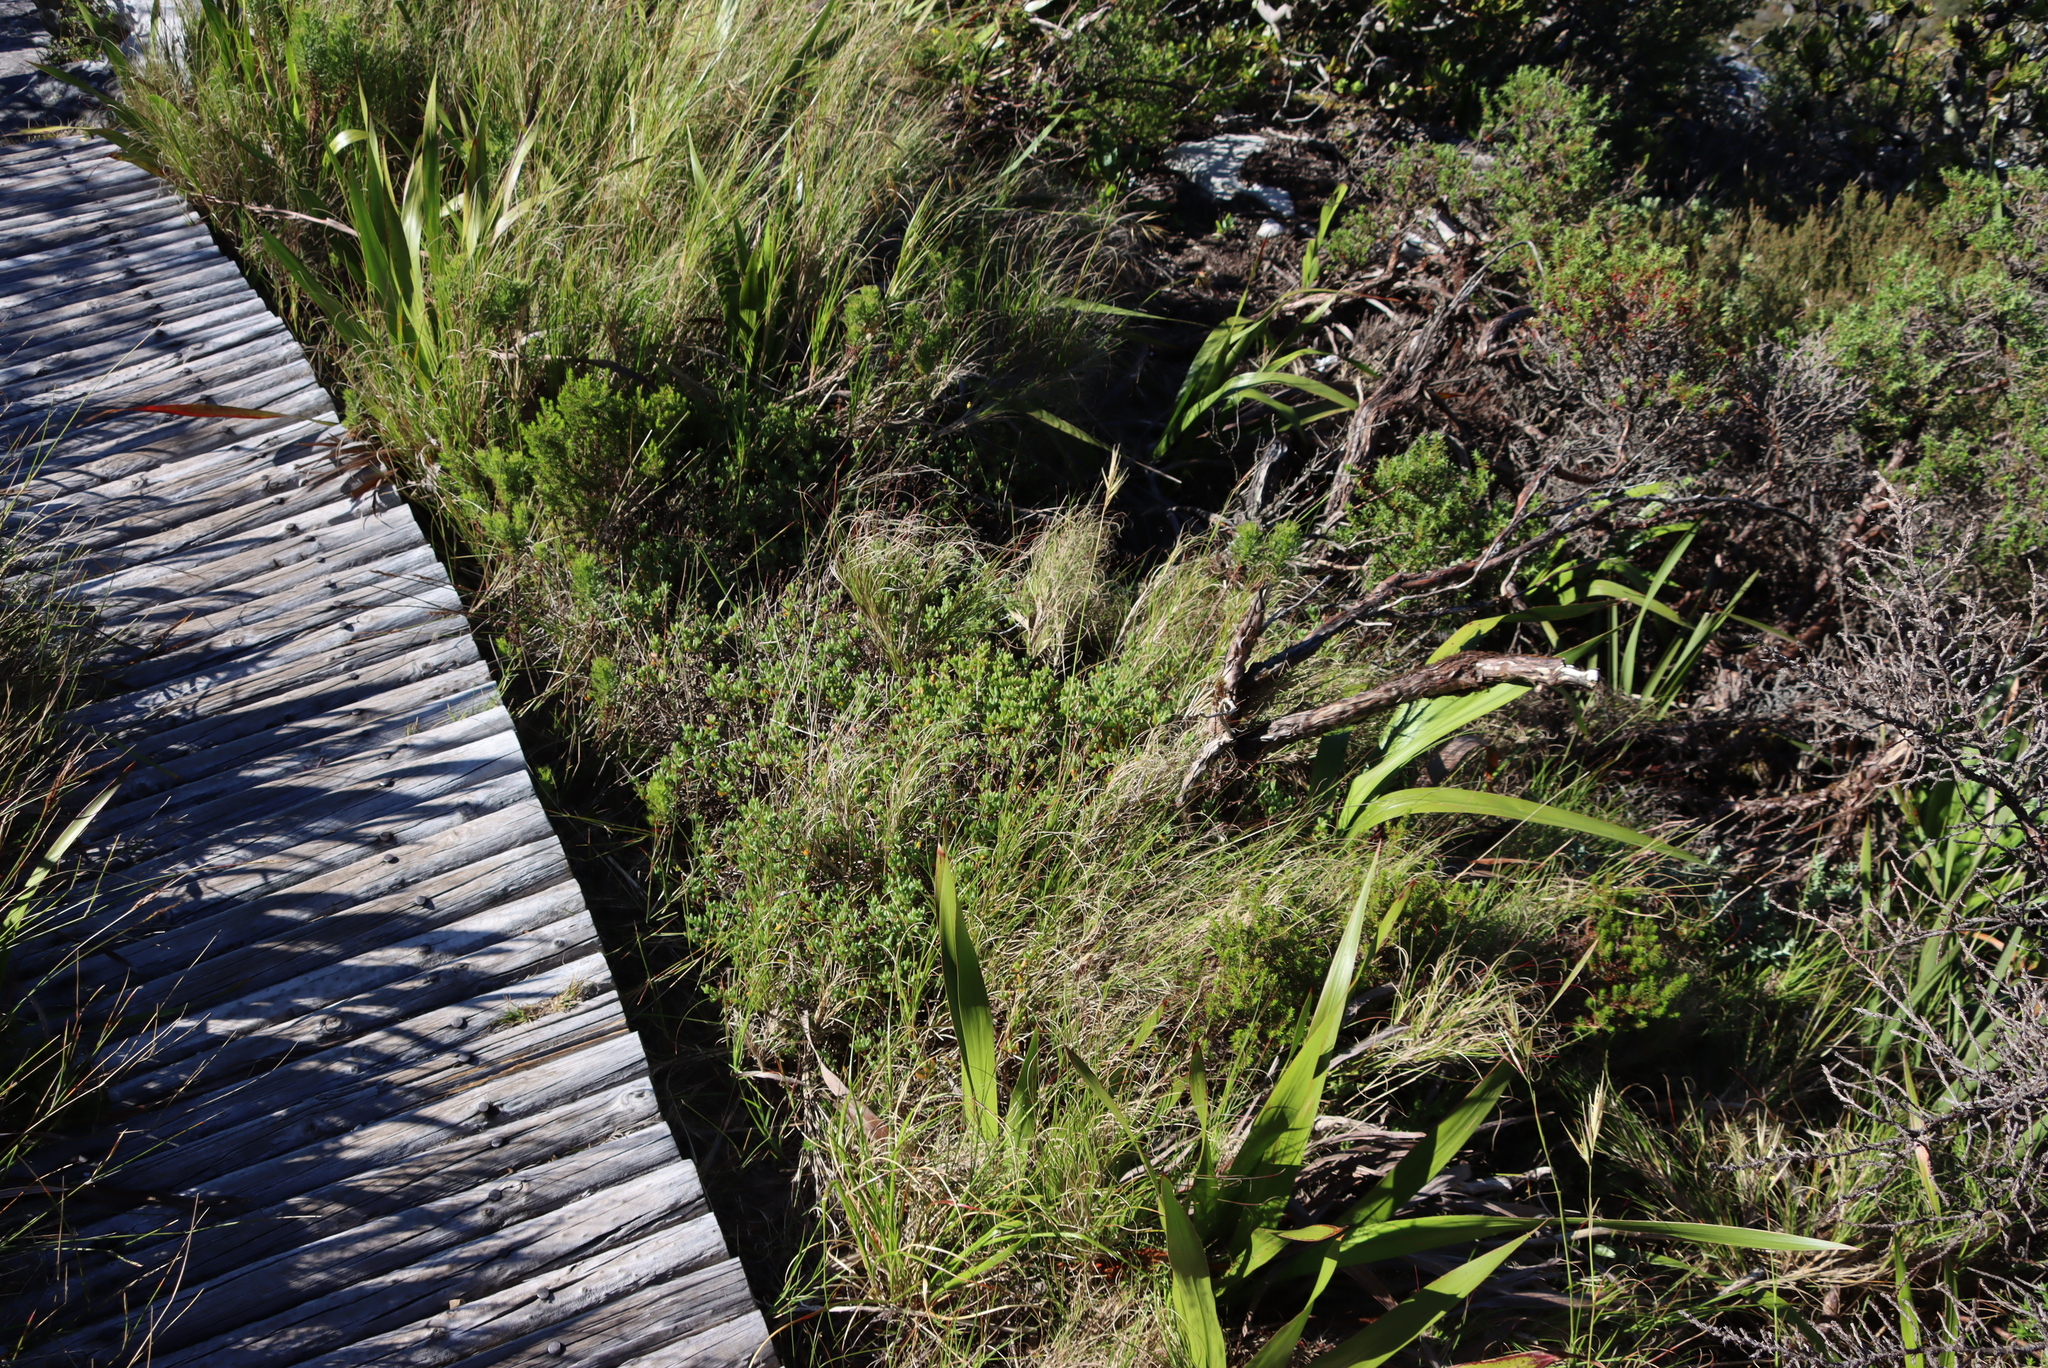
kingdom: Plantae
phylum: Tracheophyta
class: Magnoliopsida
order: Caryophyllales
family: Aizoaceae
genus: Oscularia
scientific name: Oscularia falciformis
